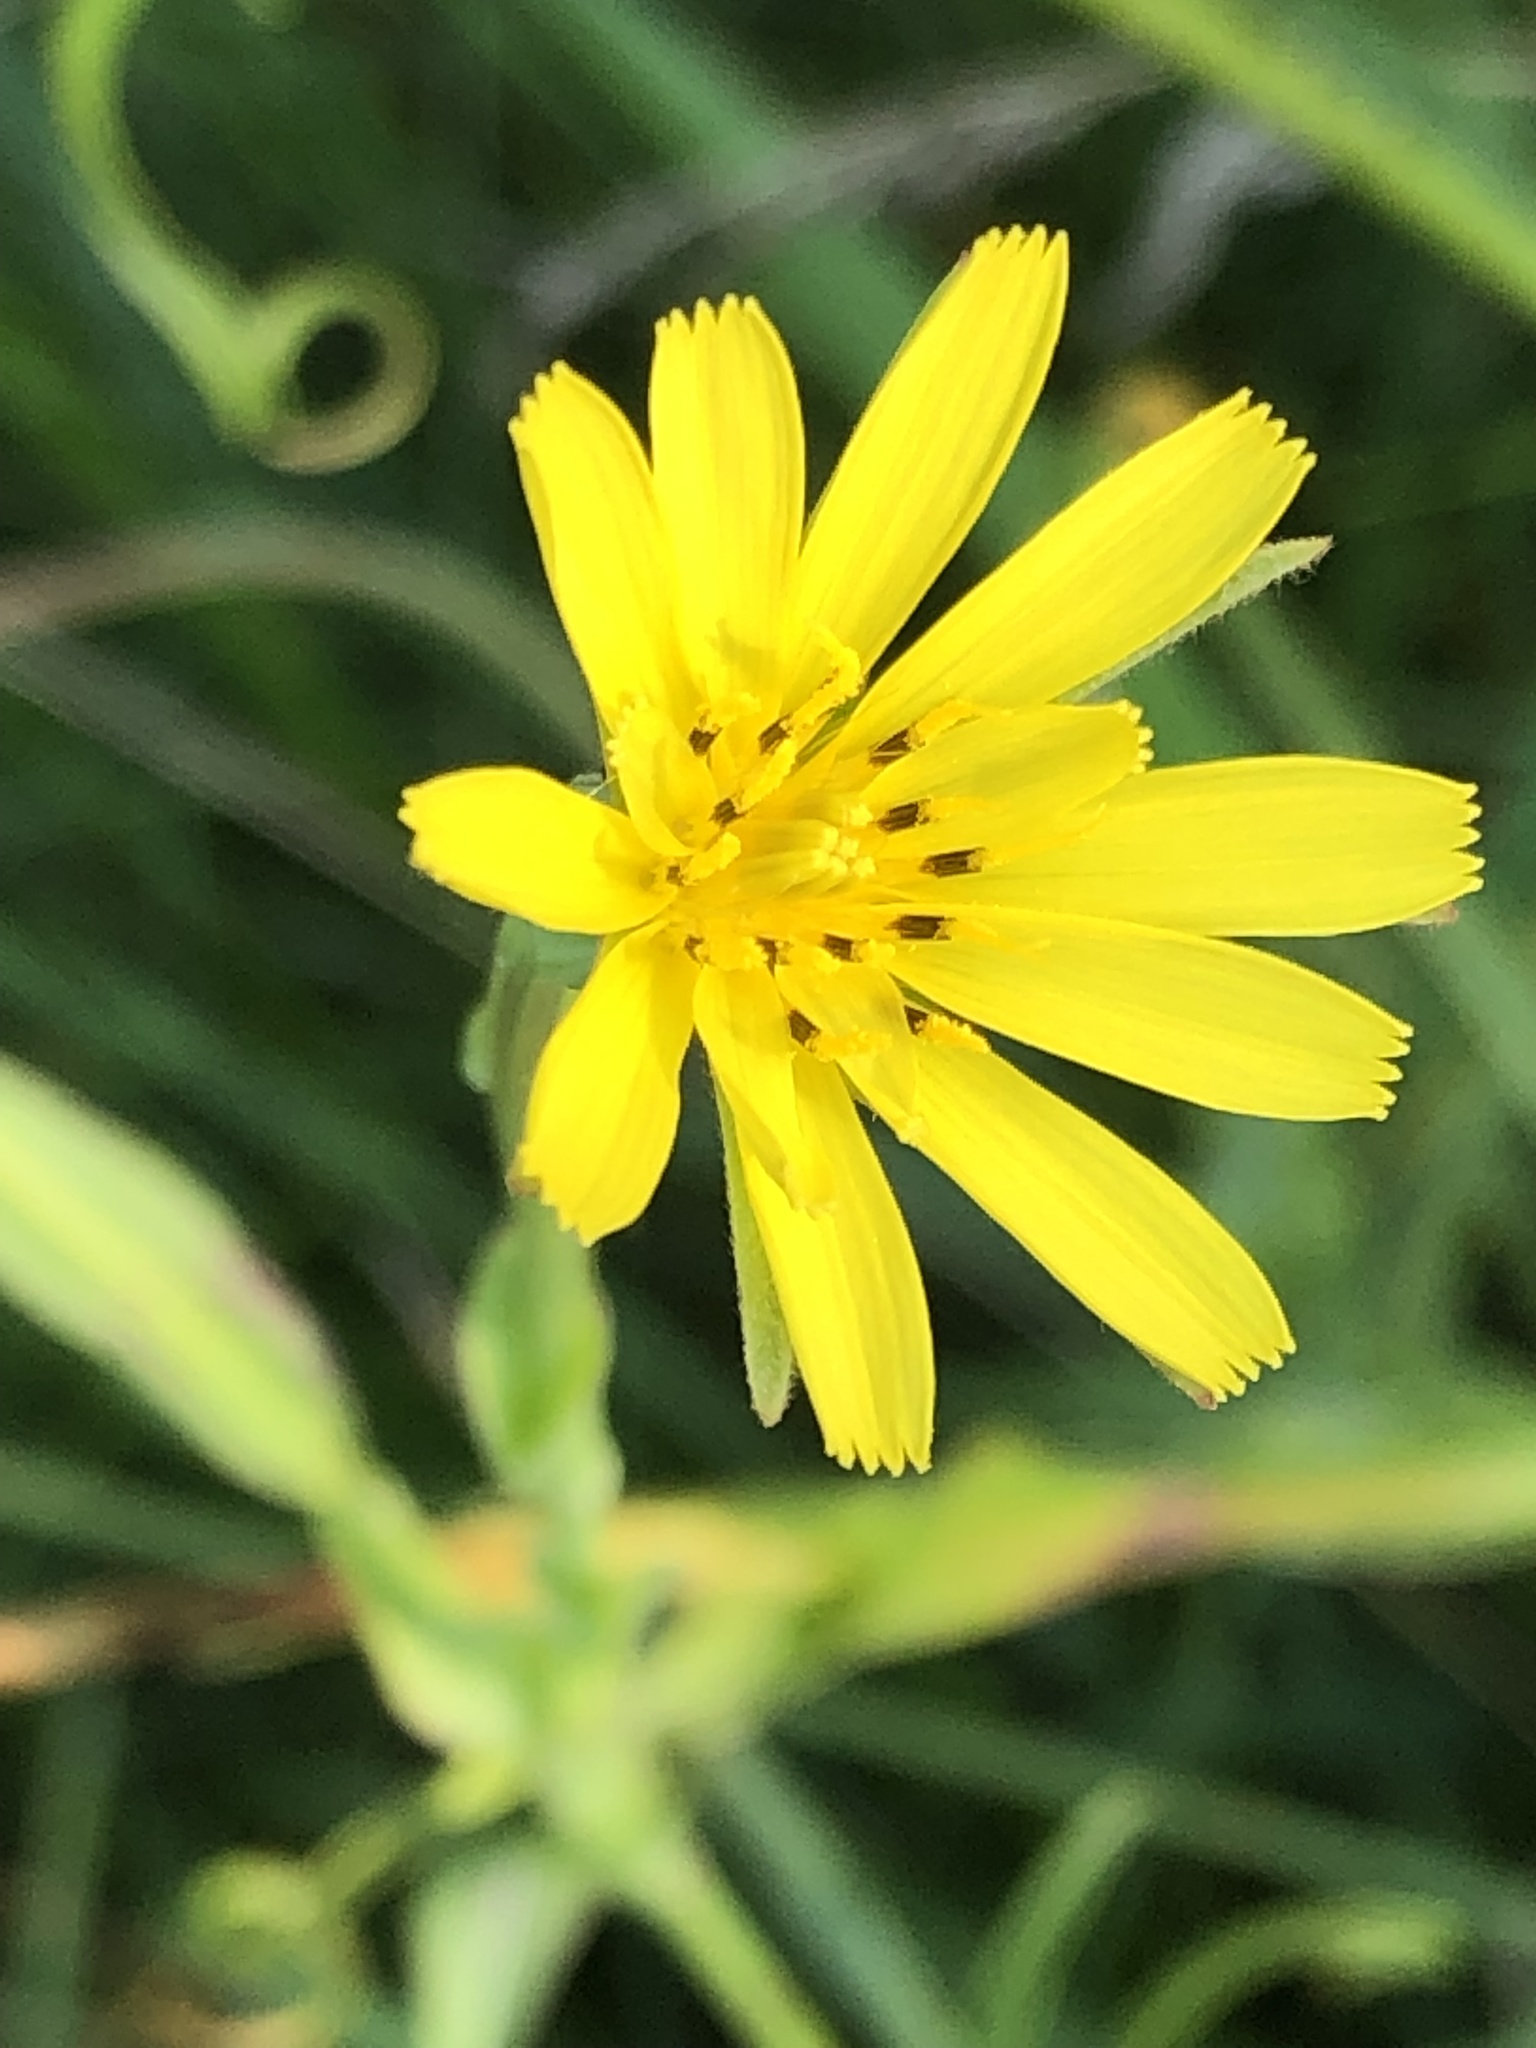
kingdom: Plantae
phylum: Tracheophyta
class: Magnoliopsida
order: Asterales
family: Asteraceae
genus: Tragopogon
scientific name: Tragopogon pratensis
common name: Goat's-beard
